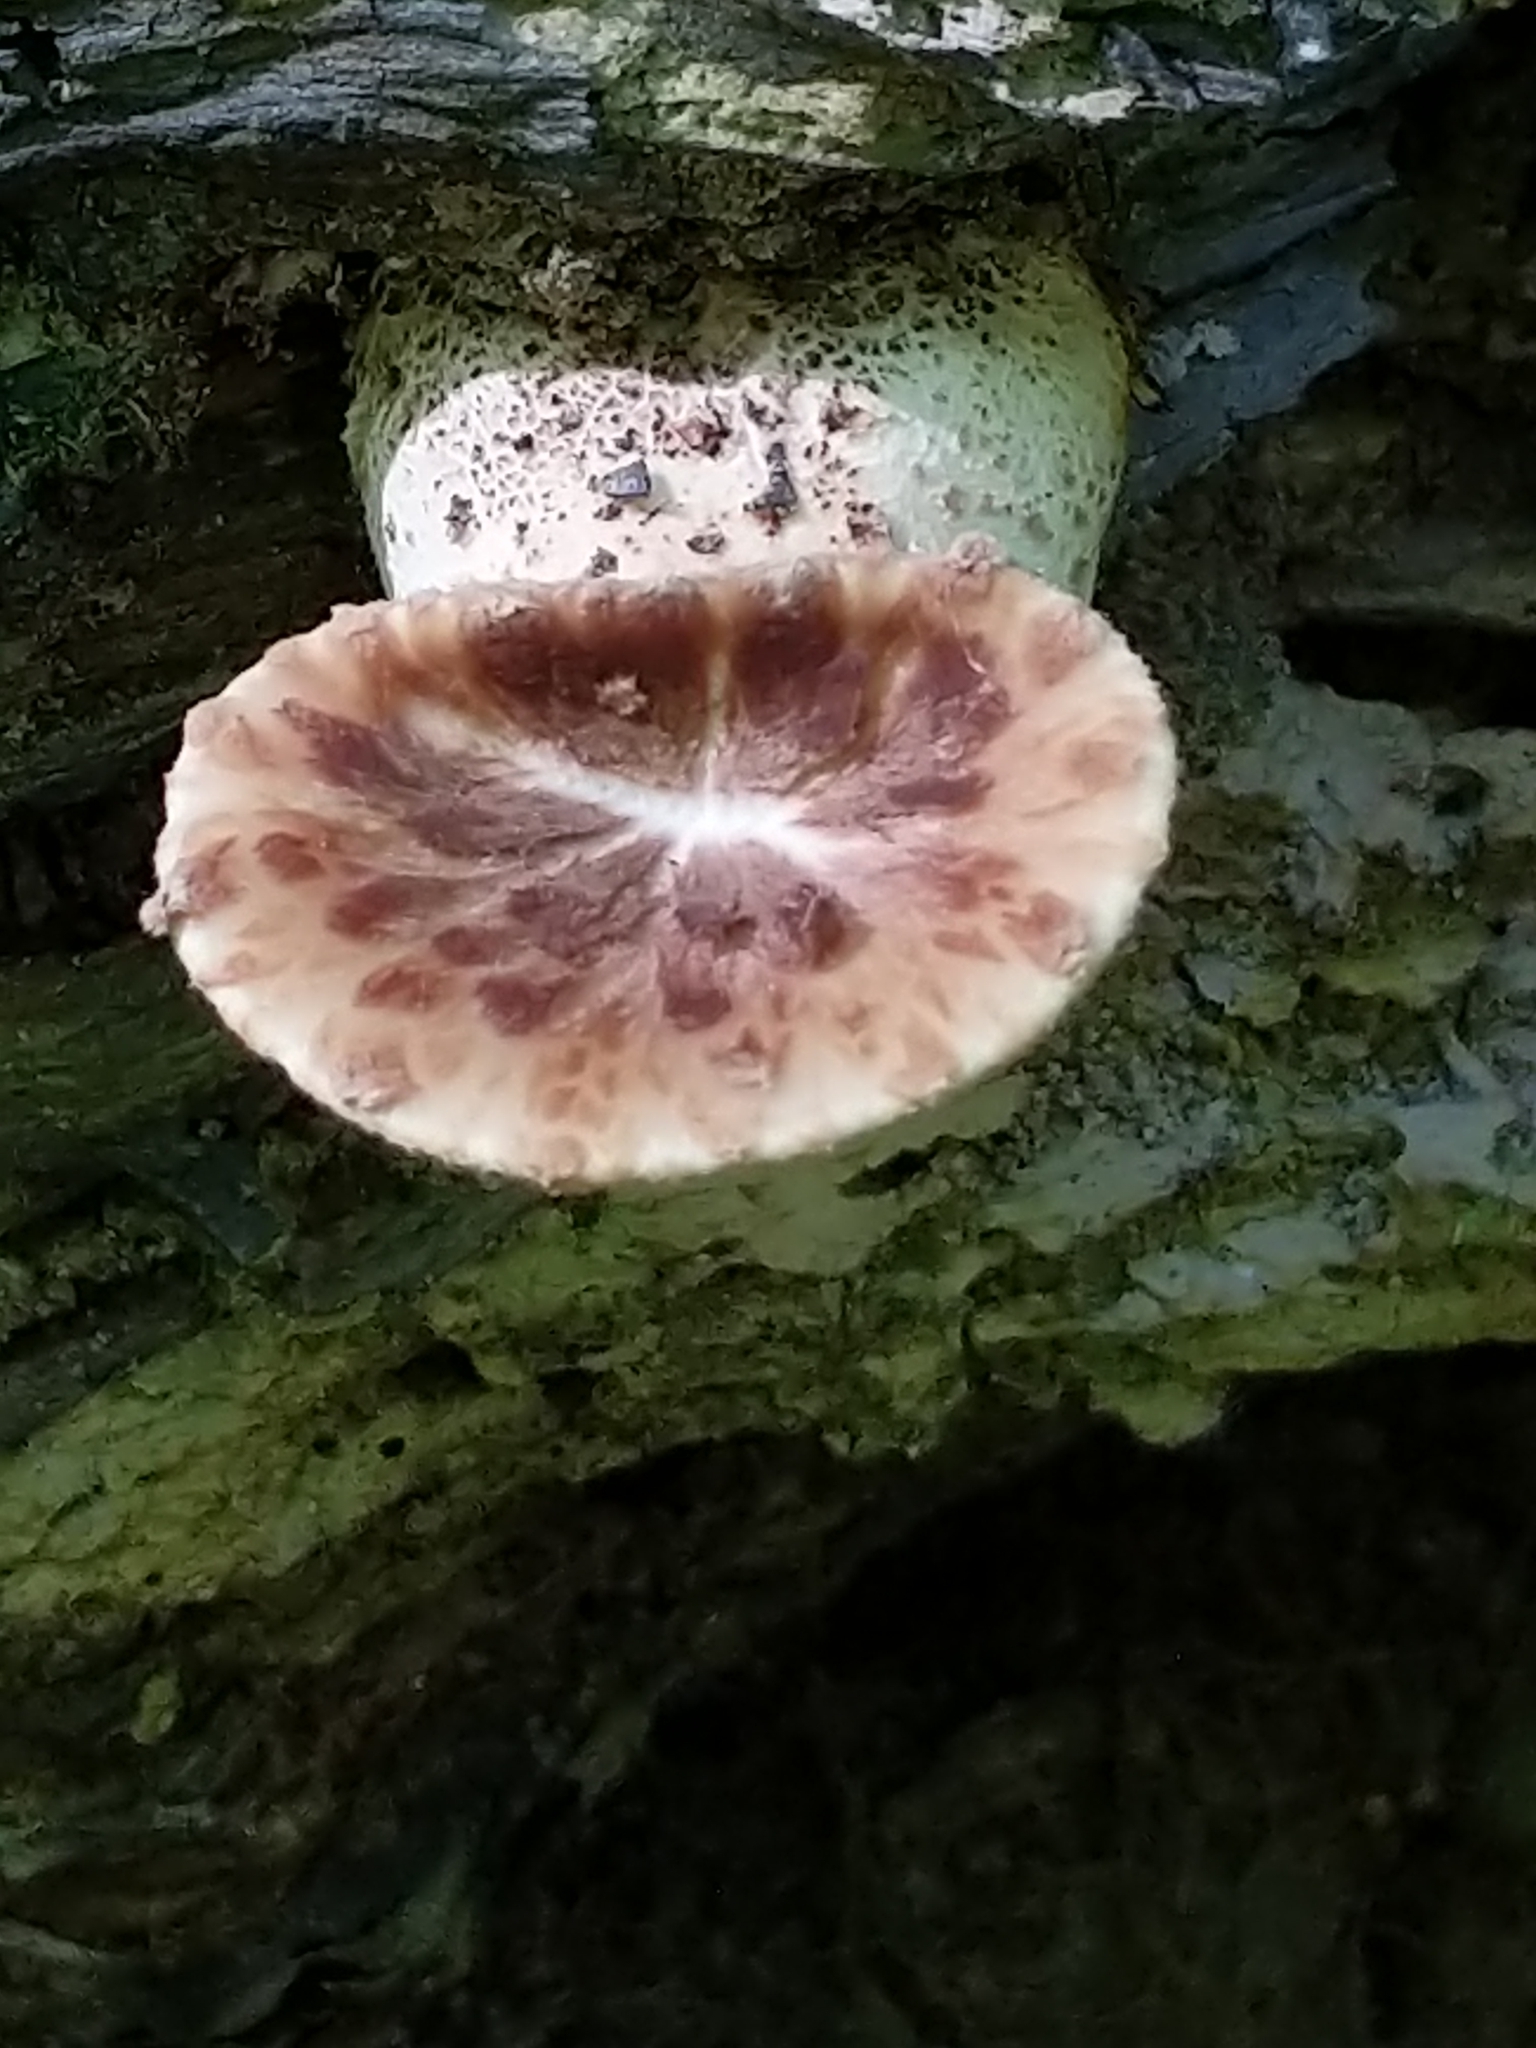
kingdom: Fungi
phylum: Basidiomycota
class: Agaricomycetes
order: Polyporales
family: Polyporaceae
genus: Cerioporus
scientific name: Cerioporus squamosus
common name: Dryad's saddle
